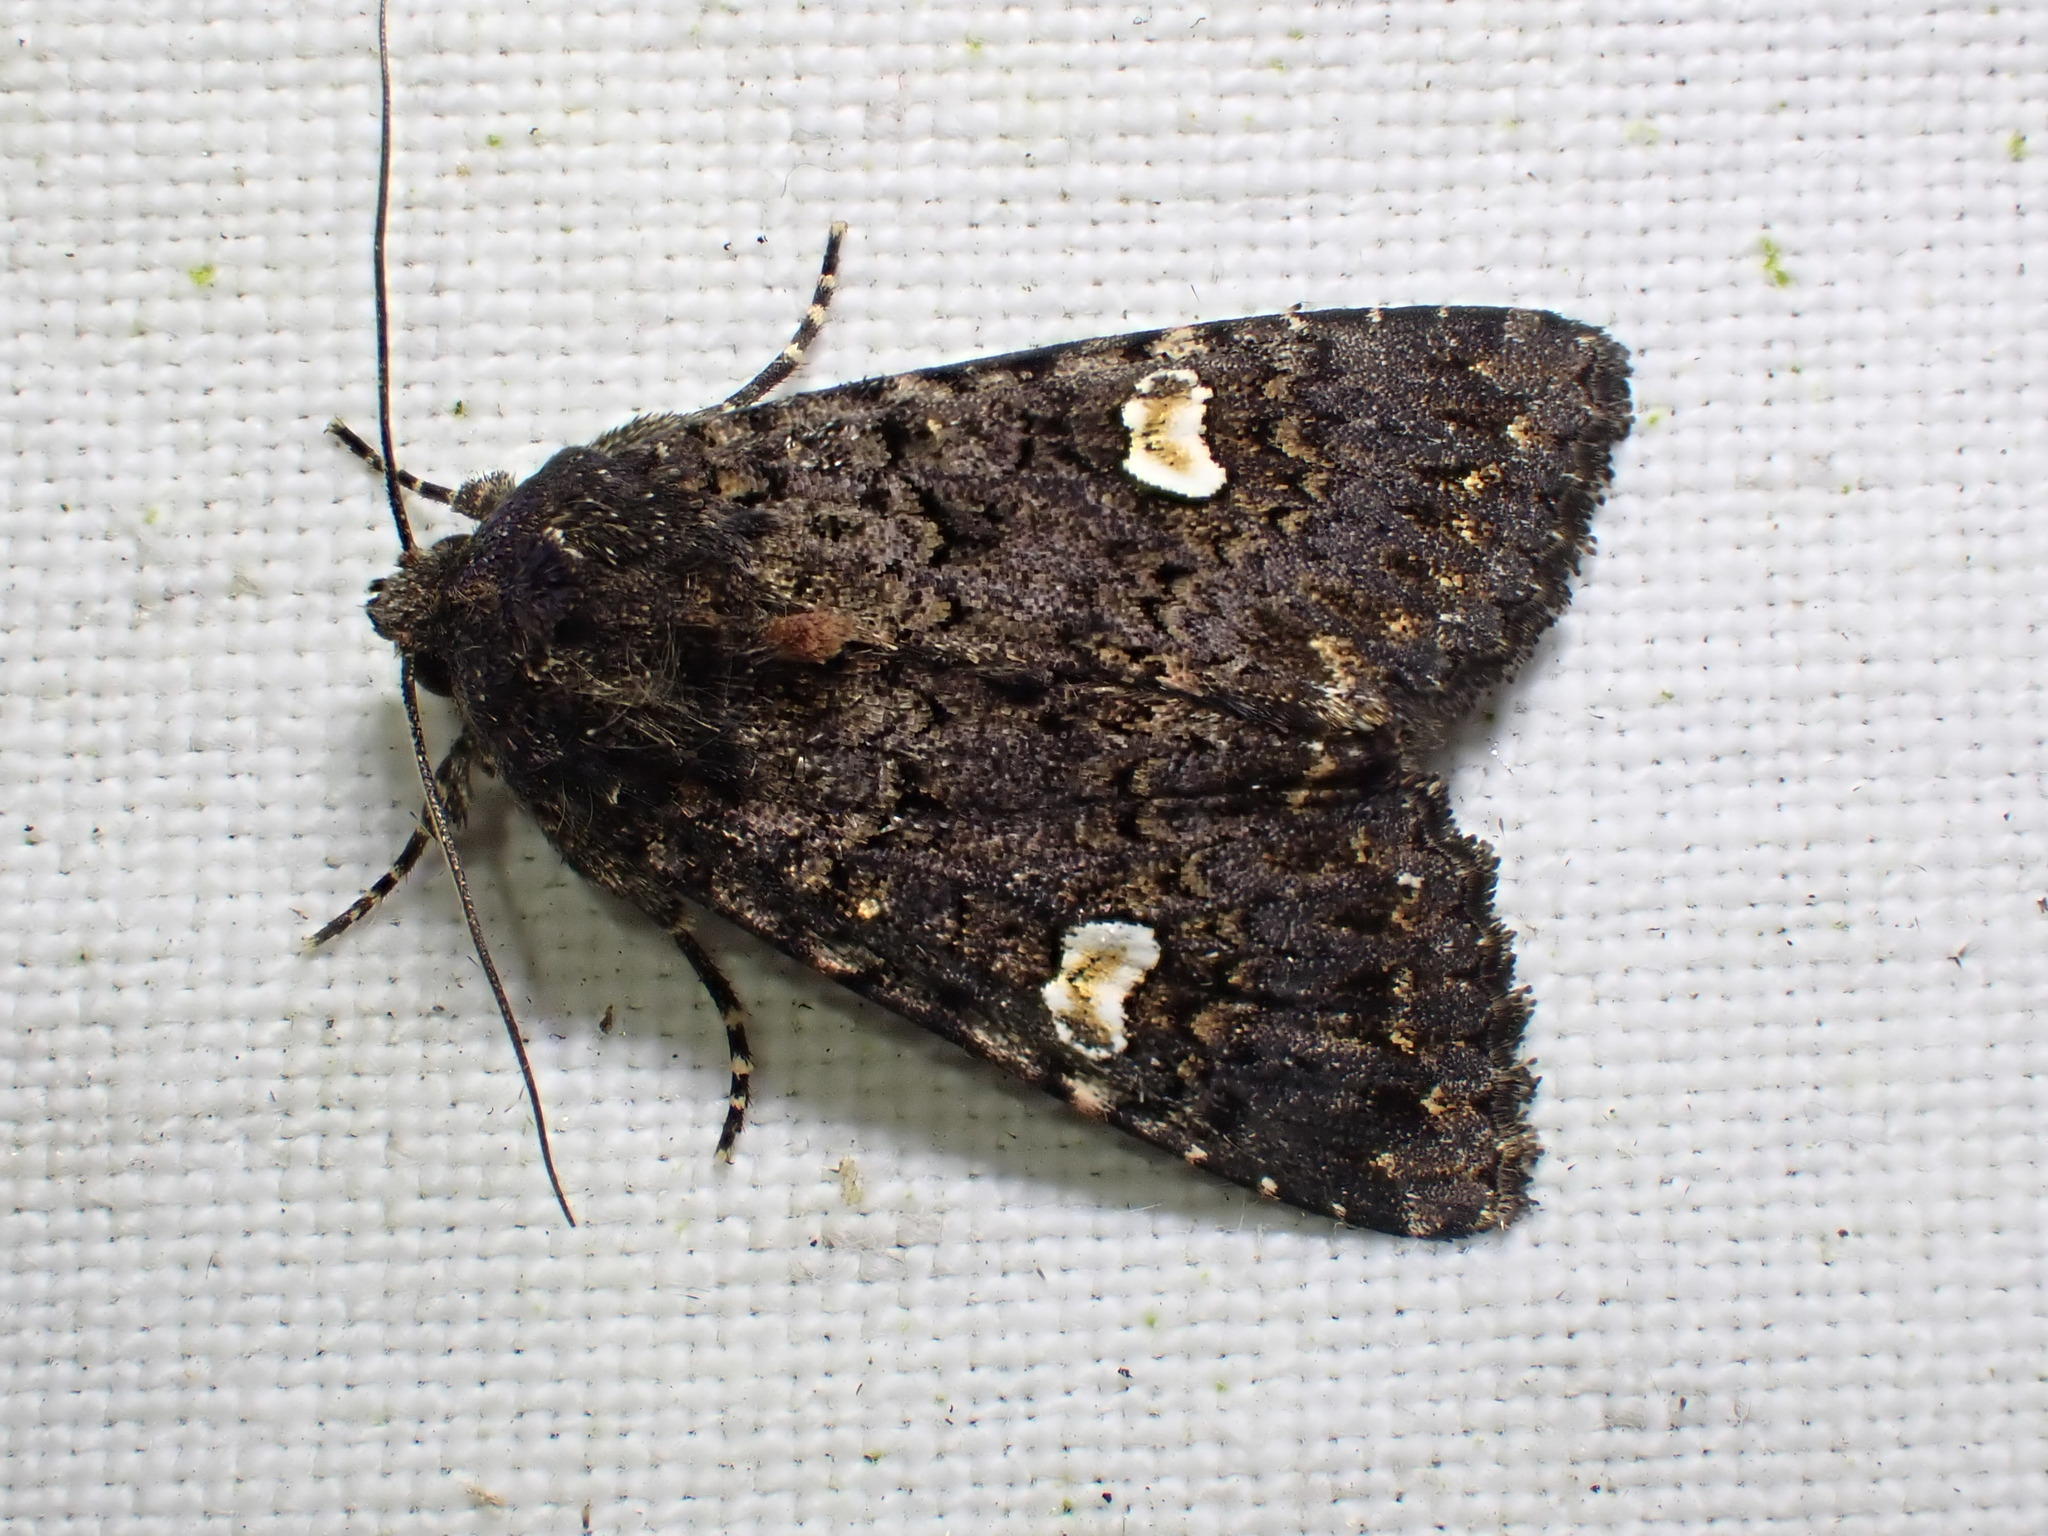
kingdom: Animalia
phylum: Arthropoda
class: Insecta
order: Lepidoptera
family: Noctuidae
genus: Melanchra
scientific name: Melanchra persicariae
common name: Dot moth
